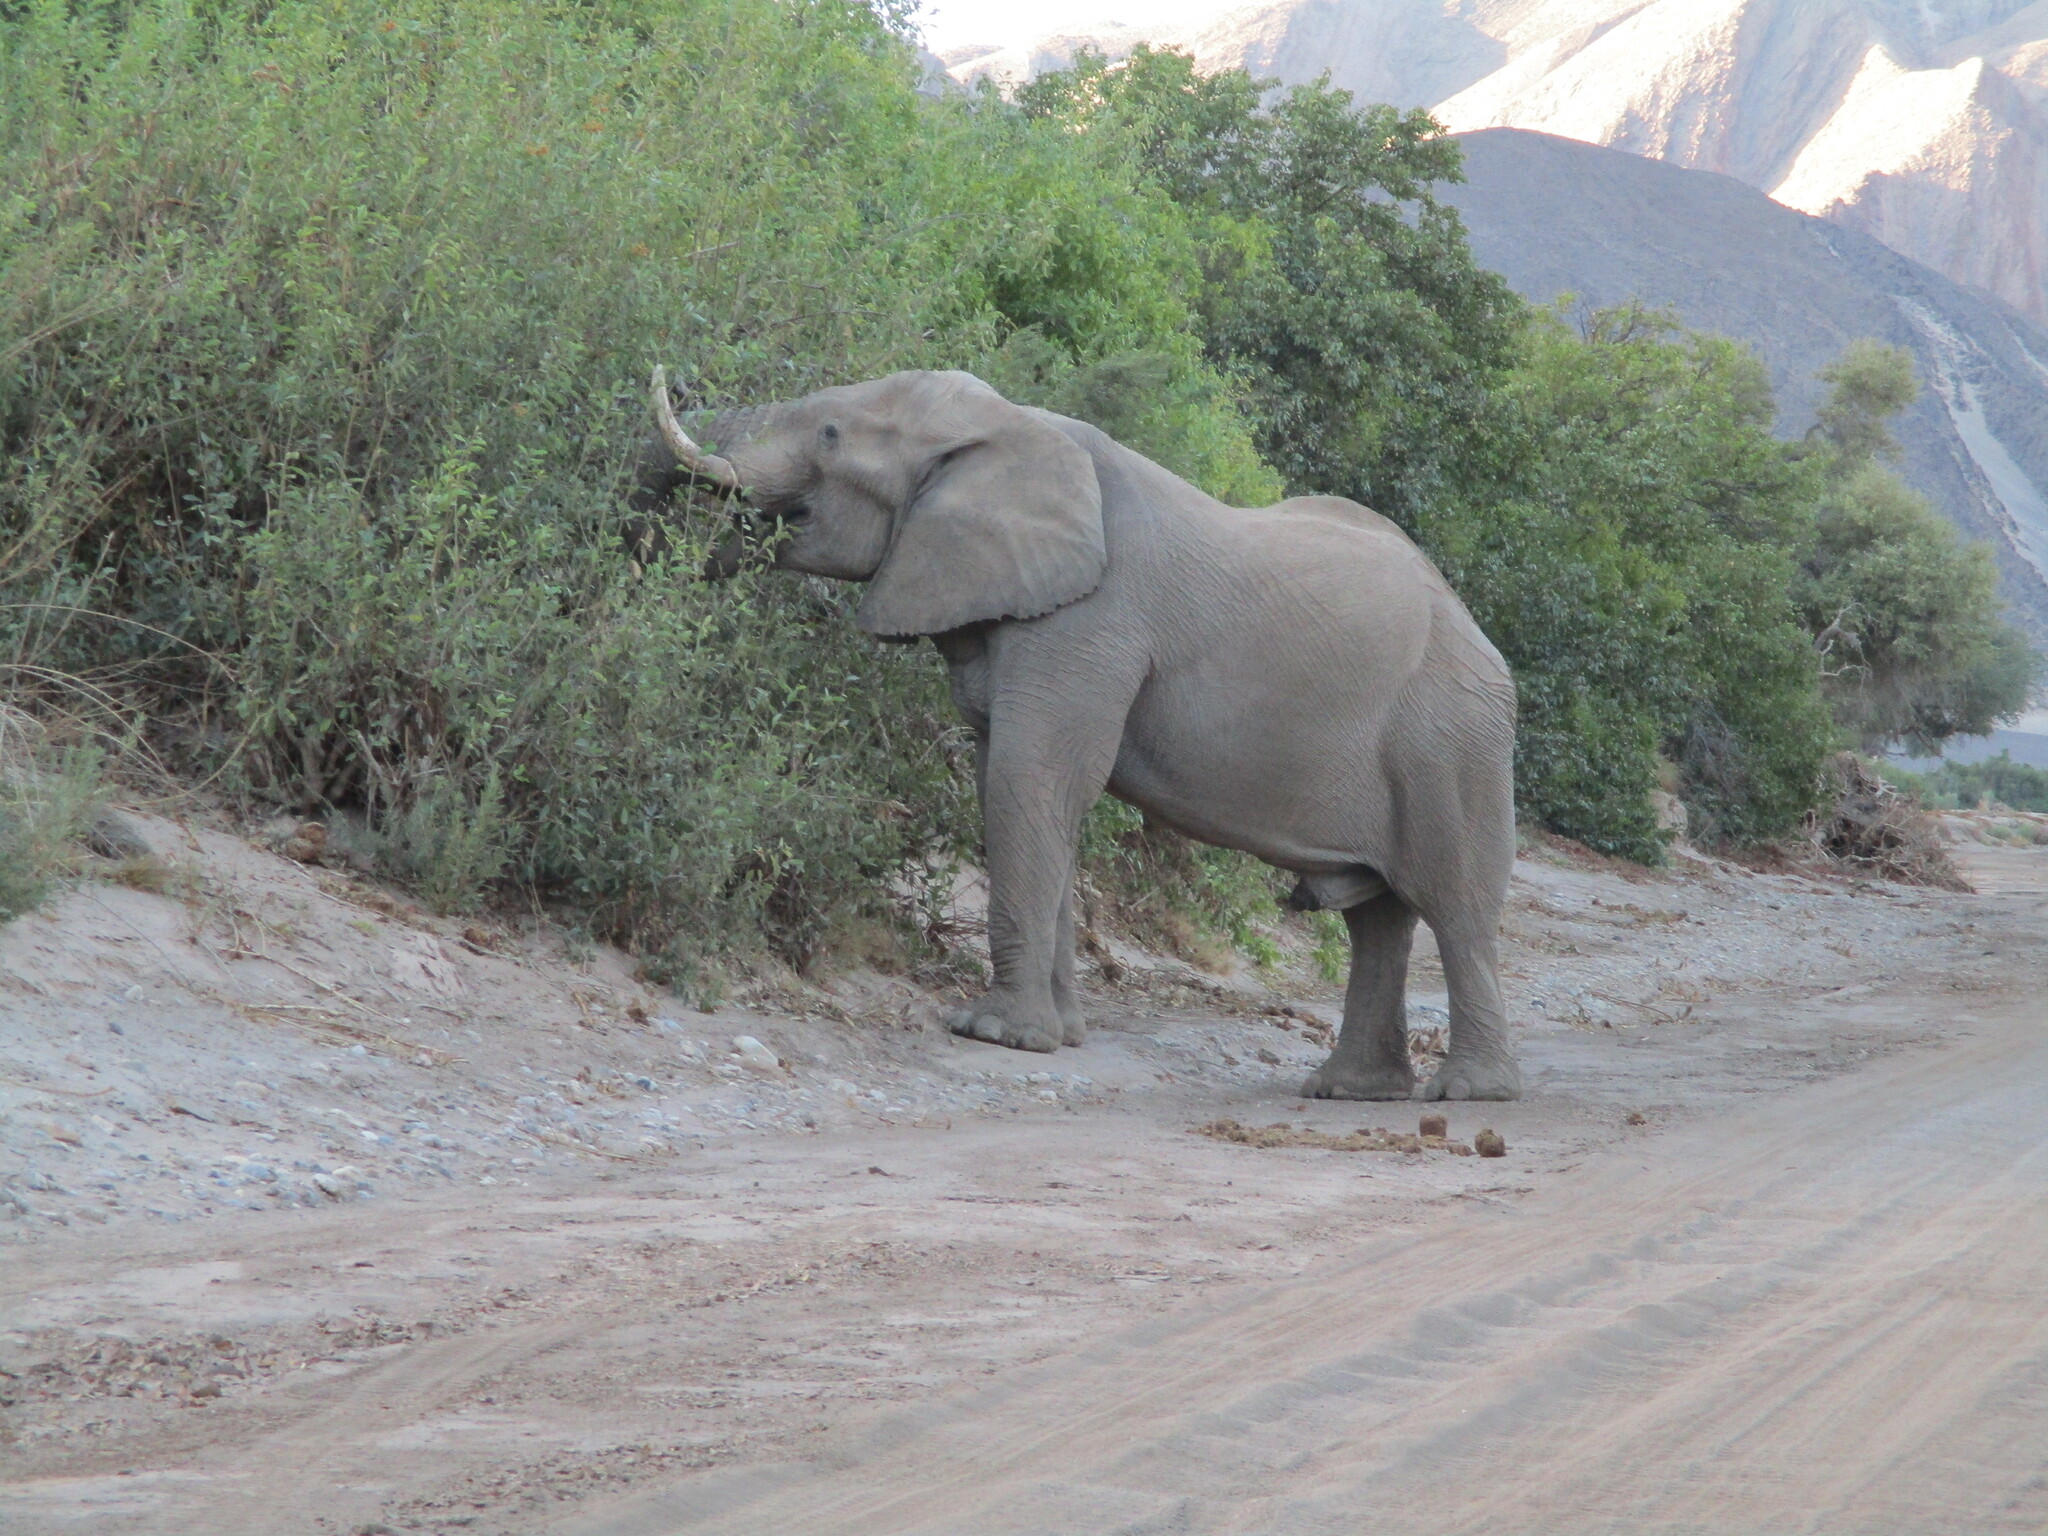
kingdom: Animalia
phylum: Chordata
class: Mammalia
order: Proboscidea
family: Elephantidae
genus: Loxodonta
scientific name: Loxodonta africana
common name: African elephant
